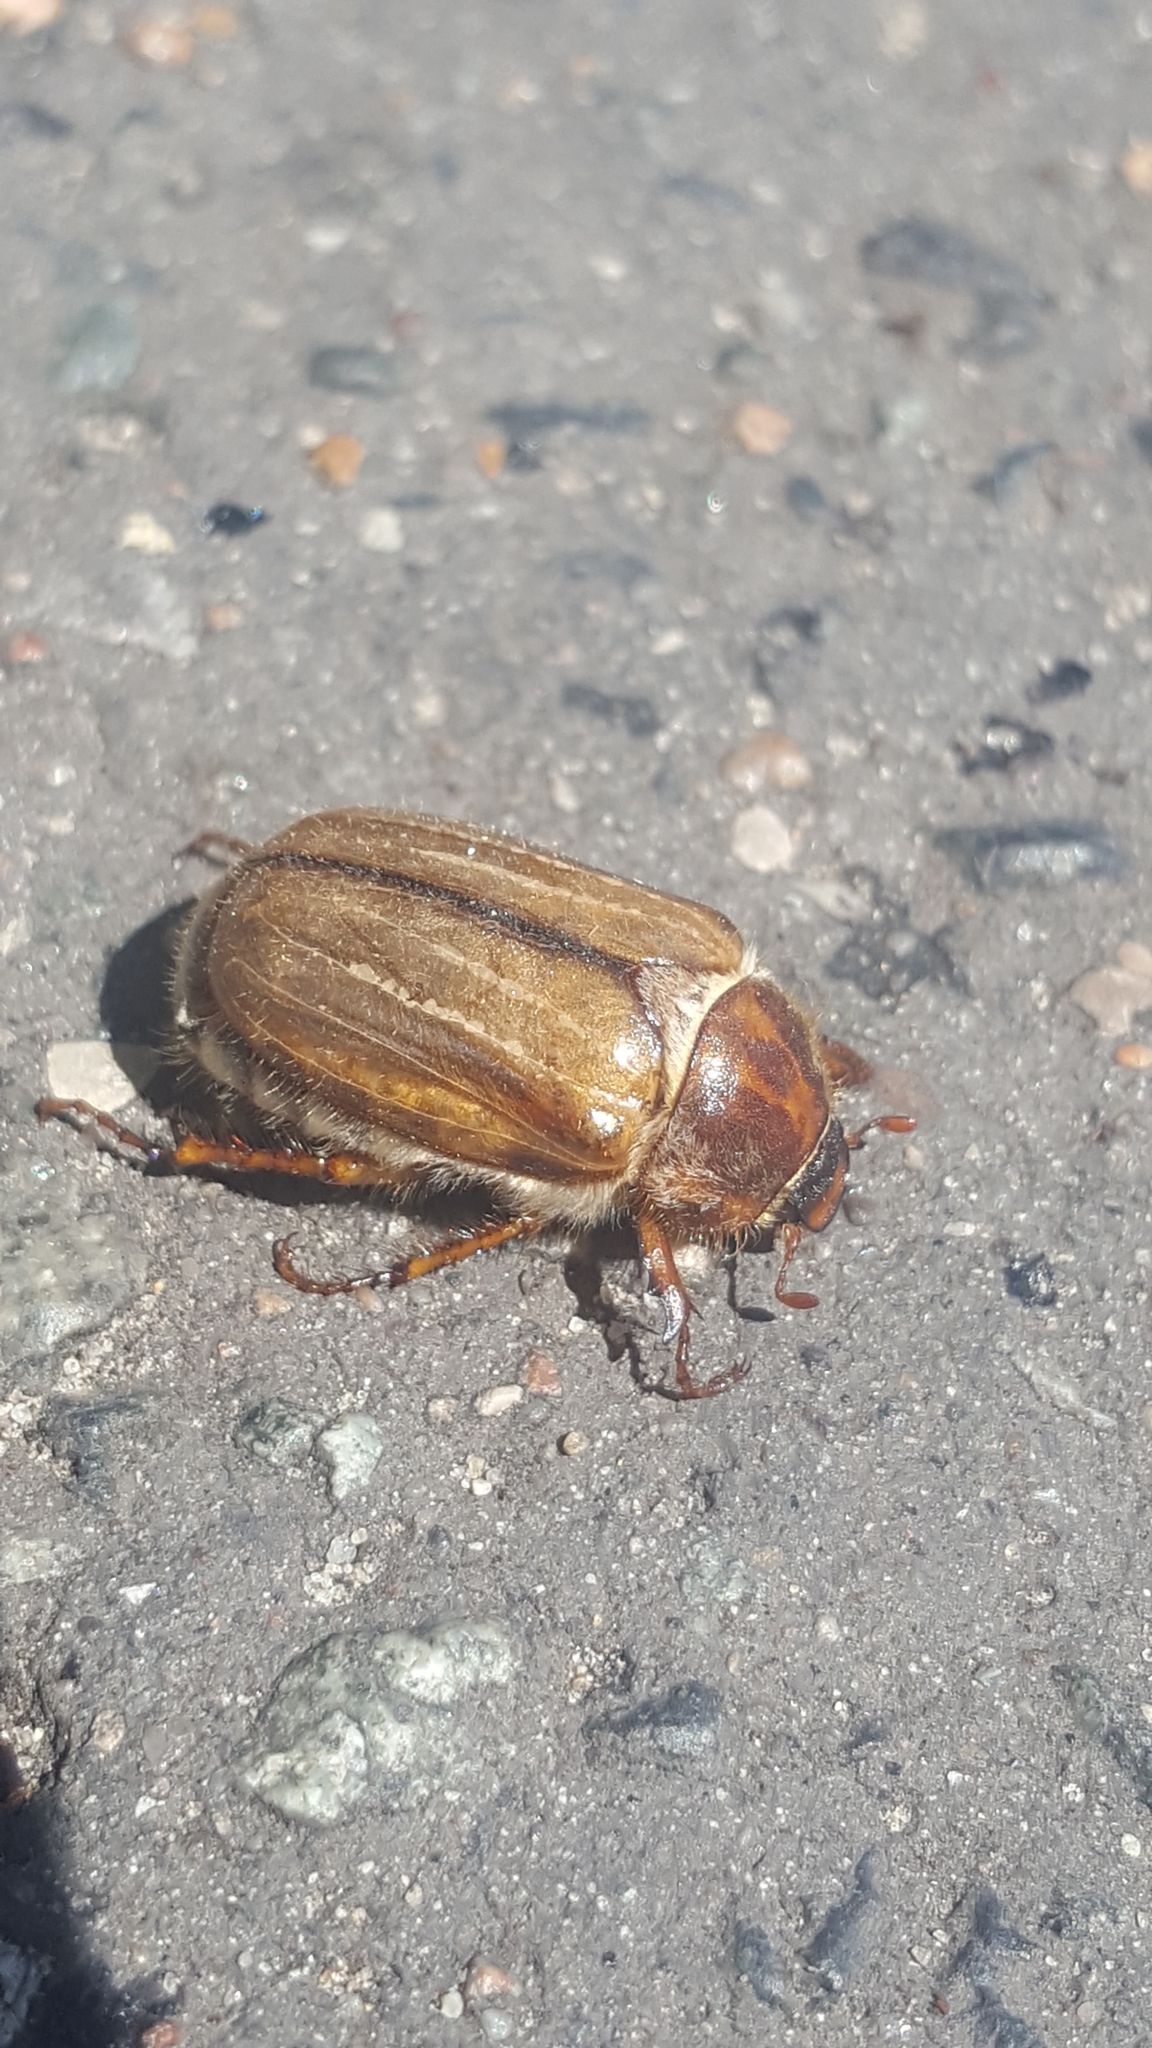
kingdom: Animalia
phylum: Arthropoda
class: Insecta
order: Coleoptera
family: Scarabaeidae
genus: Amphimallon
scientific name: Amphimallon solstitiale
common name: Summer chafer
